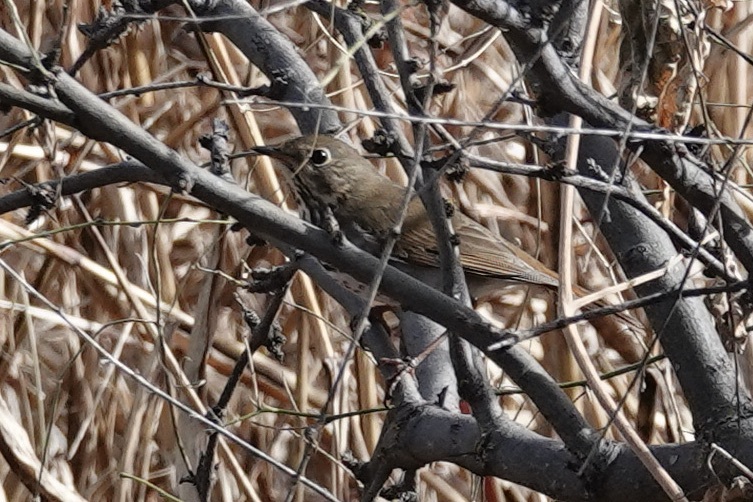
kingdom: Animalia
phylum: Chordata
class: Aves
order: Passeriformes
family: Turdidae
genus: Catharus
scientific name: Catharus guttatus
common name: Hermit thrush
